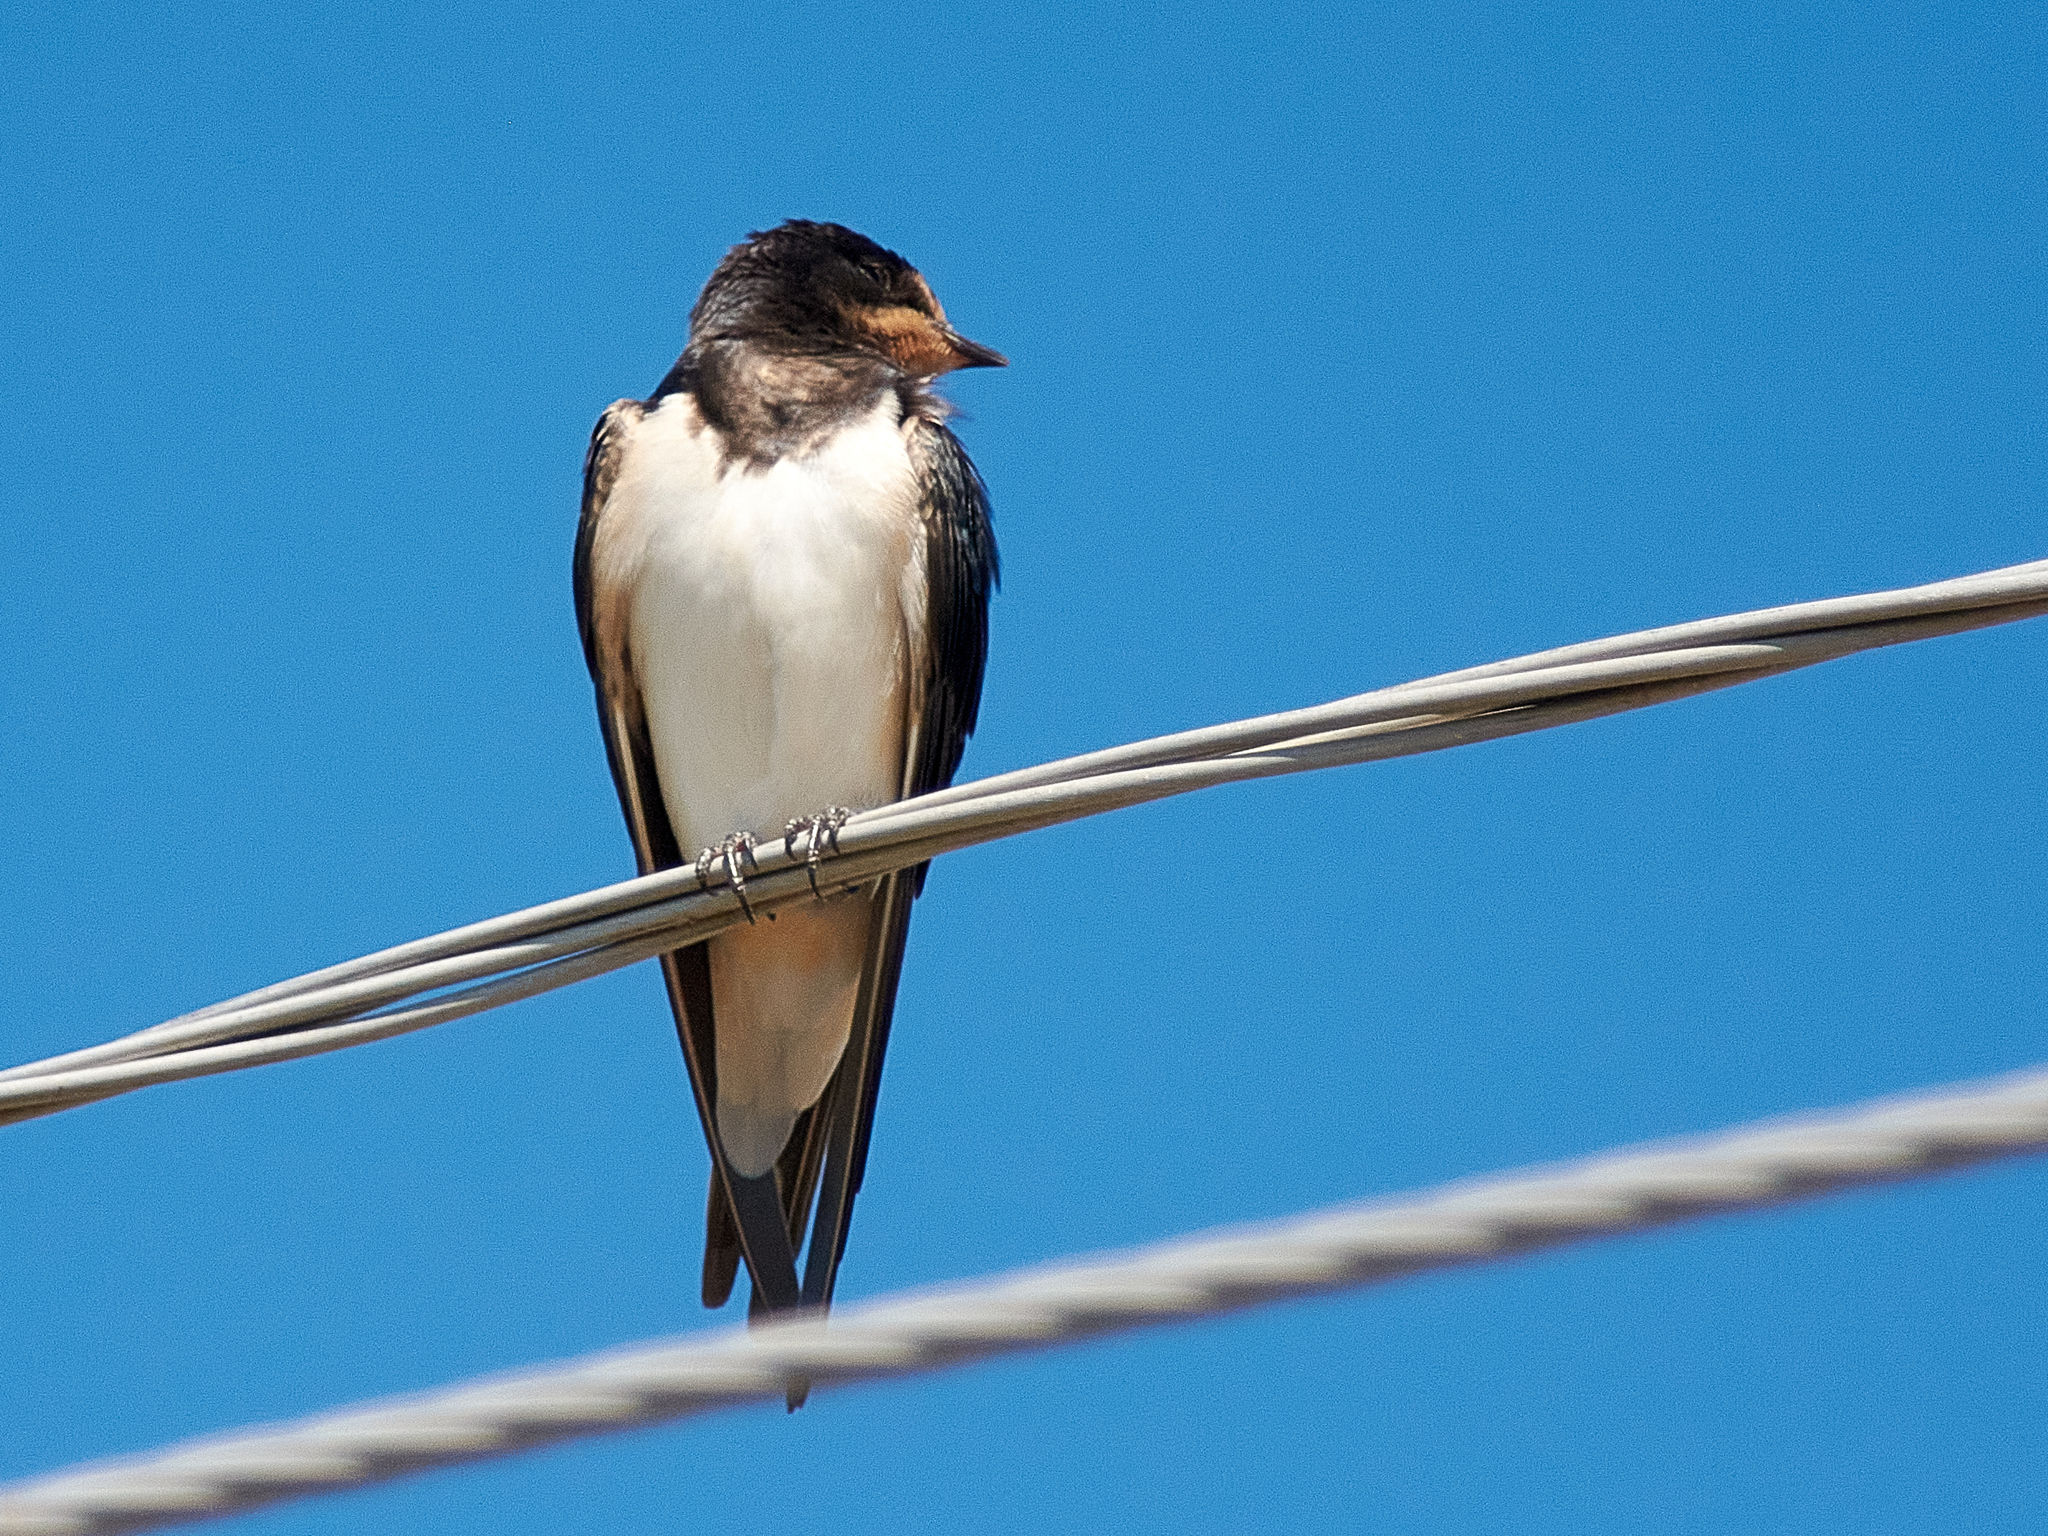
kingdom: Animalia
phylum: Chordata
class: Aves
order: Passeriformes
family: Hirundinidae
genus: Hirundo
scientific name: Hirundo rustica
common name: Barn swallow
